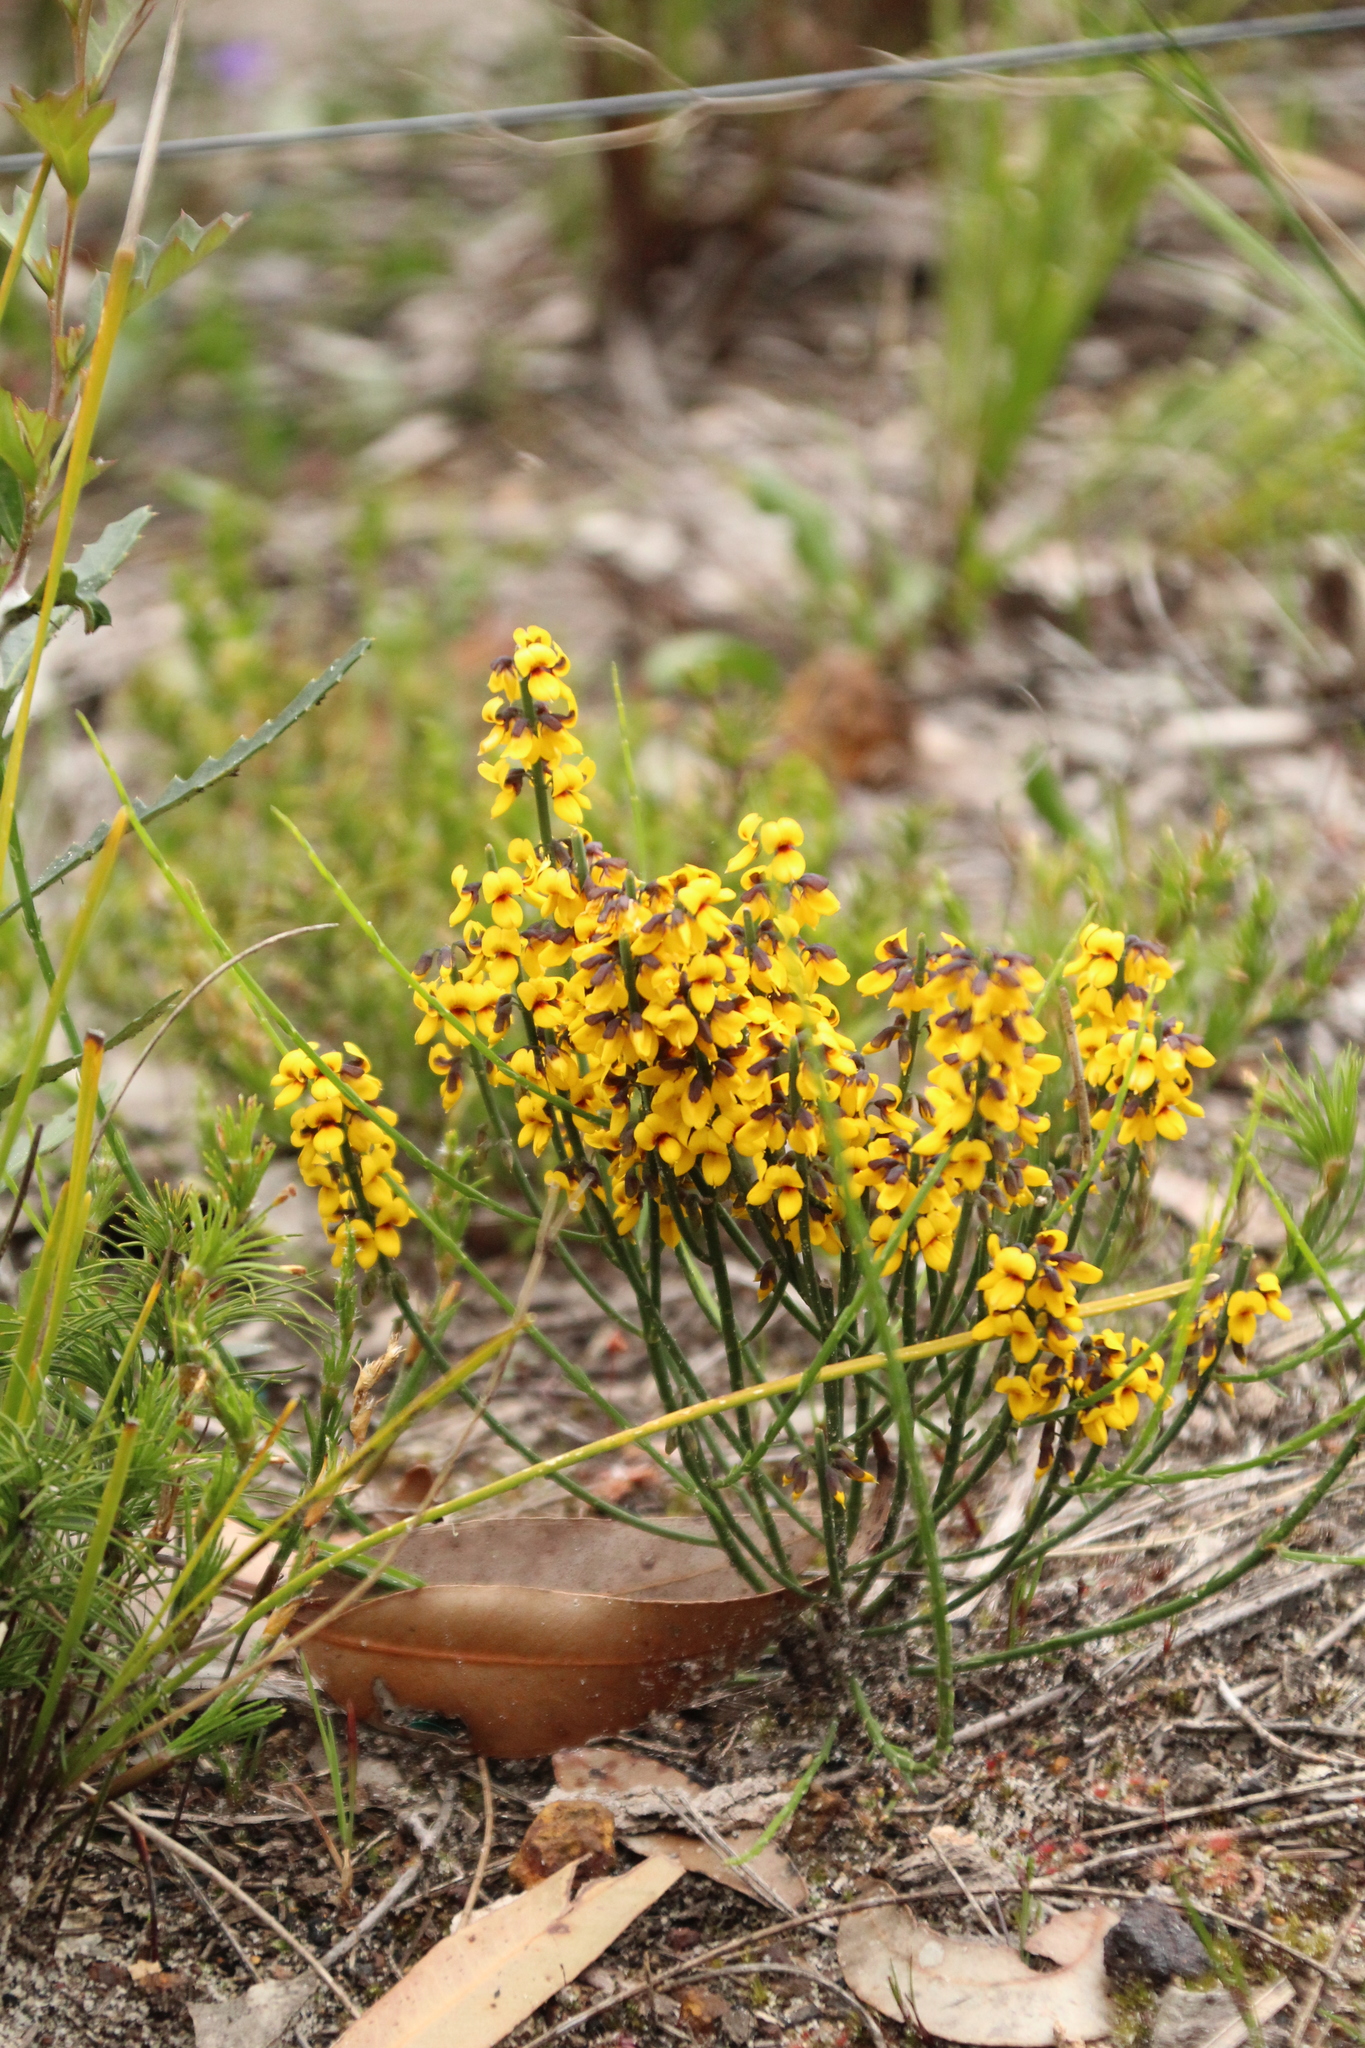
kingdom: Plantae
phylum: Tracheophyta
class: Magnoliopsida
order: Fabales
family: Fabaceae
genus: Sphaerolobium
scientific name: Sphaerolobium medium
